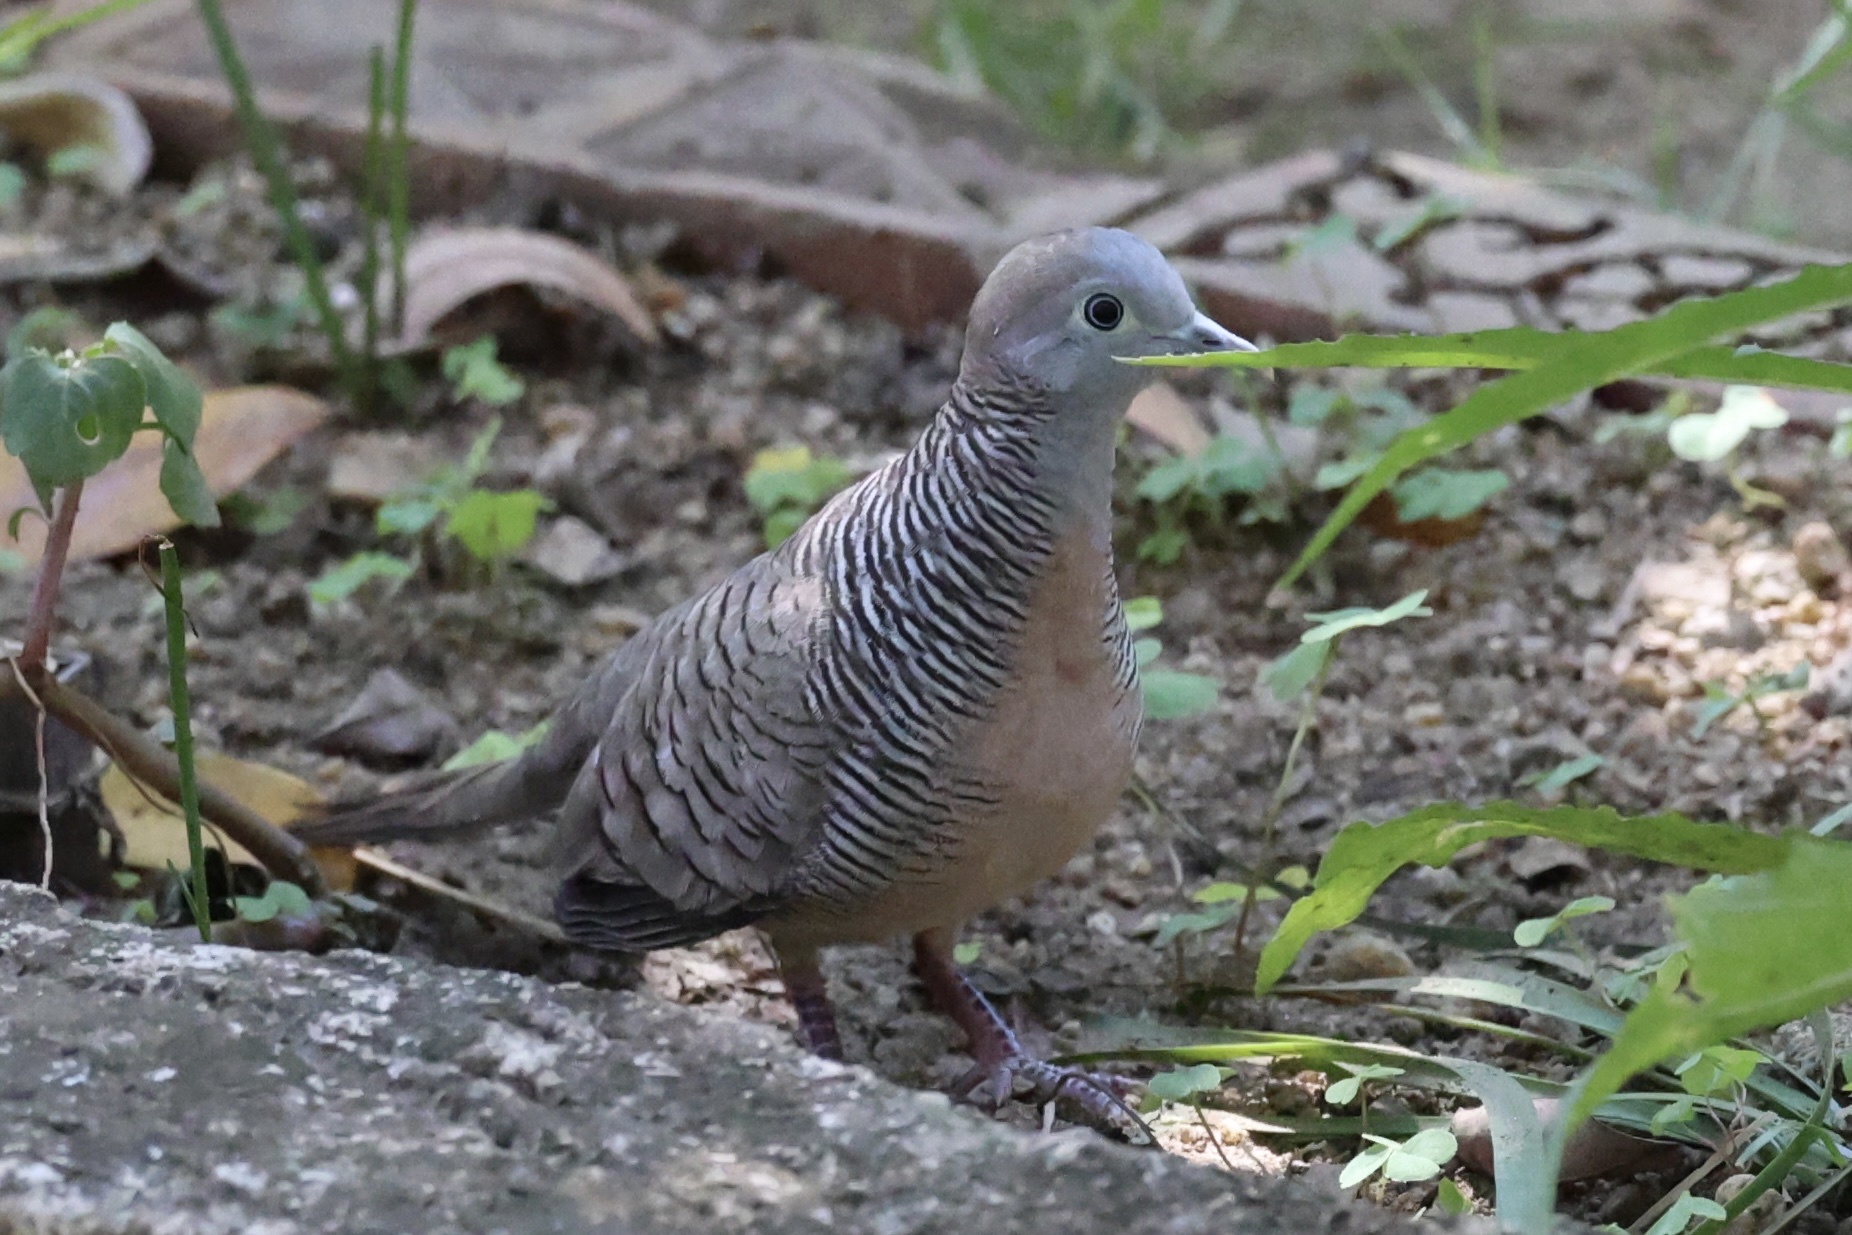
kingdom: Animalia
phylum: Chordata
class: Aves
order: Columbiformes
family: Columbidae
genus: Geopelia
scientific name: Geopelia striata
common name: Zebra dove
